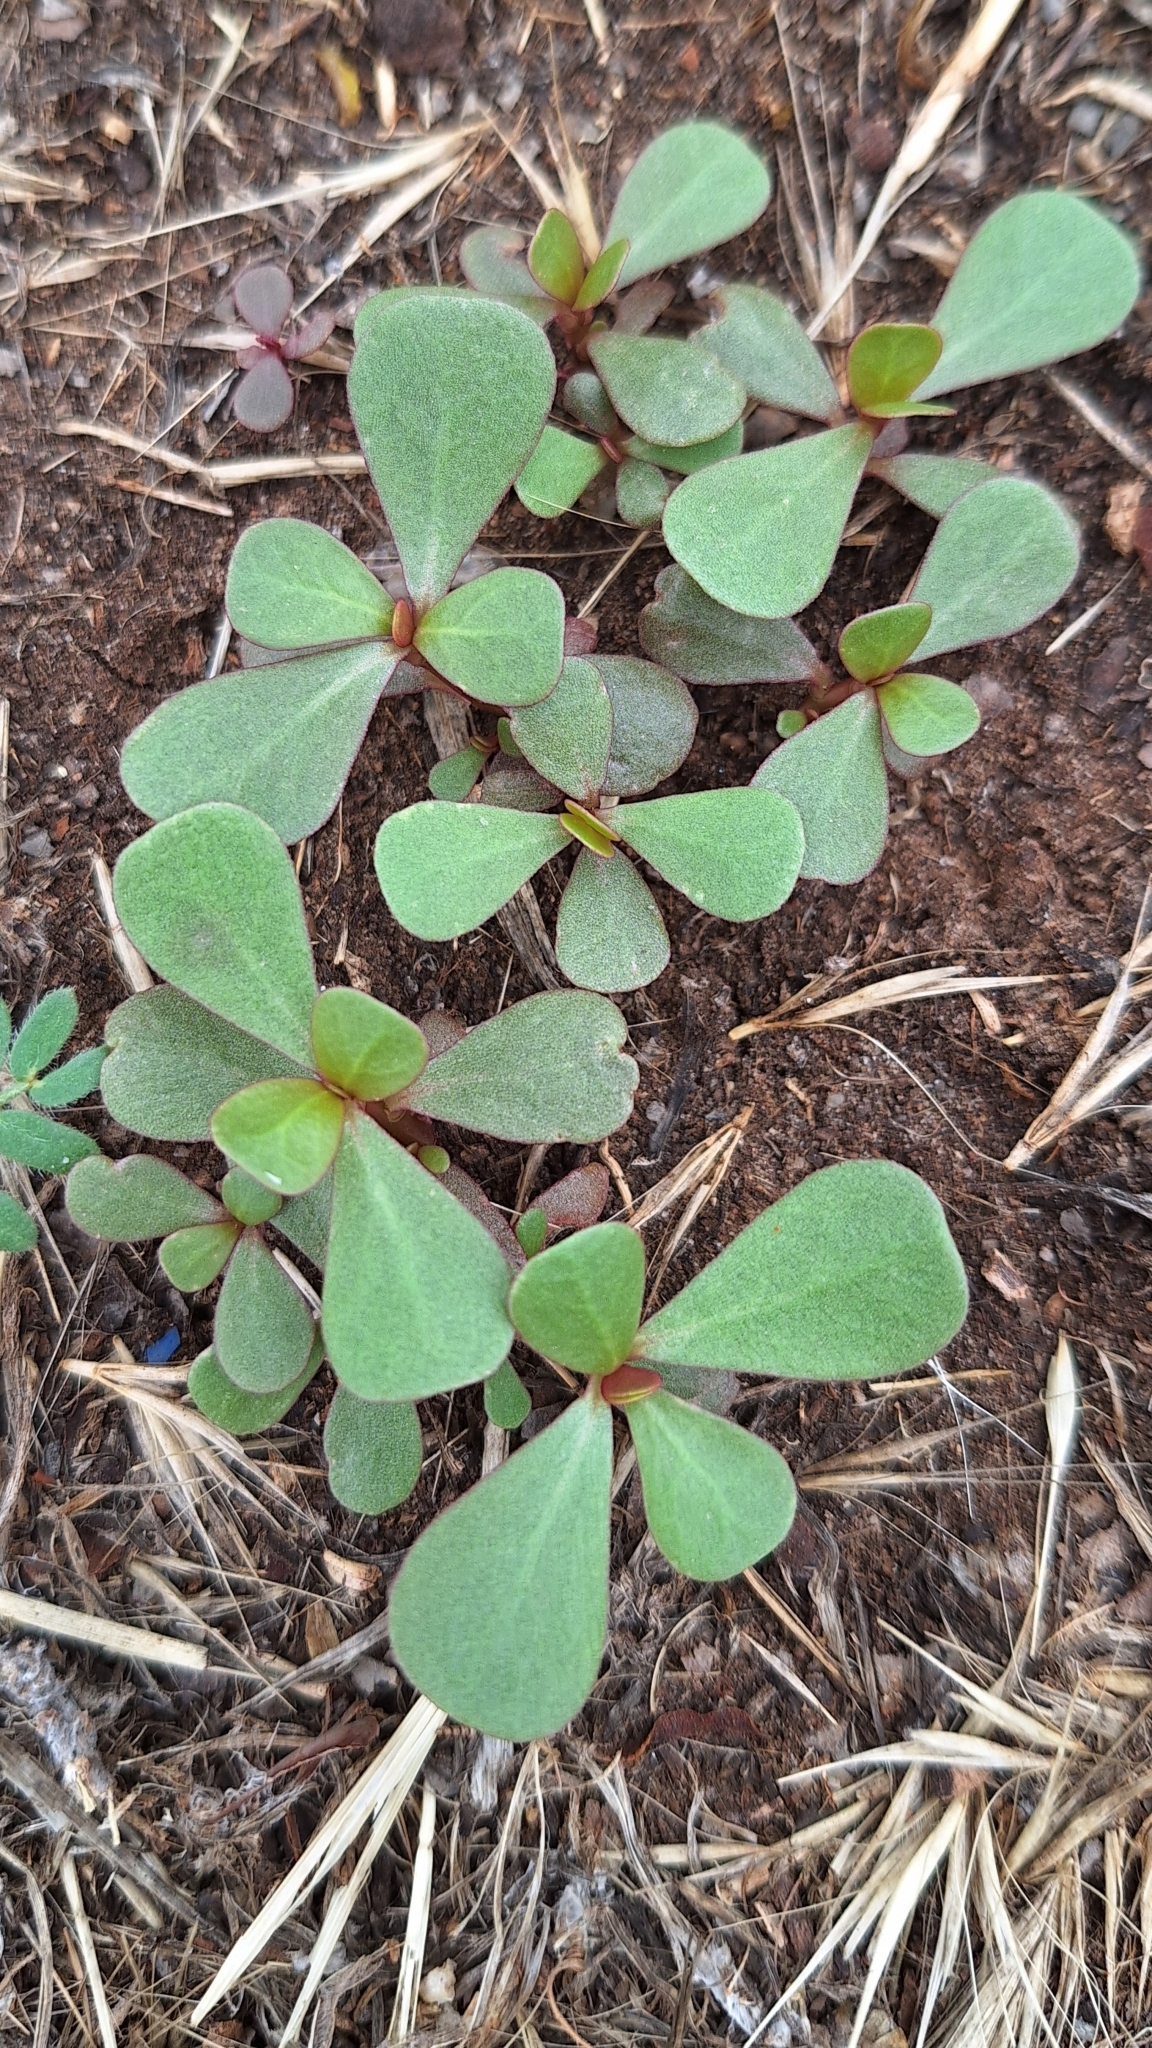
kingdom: Plantae
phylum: Tracheophyta
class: Magnoliopsida
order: Caryophyllales
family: Portulacaceae
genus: Portulaca
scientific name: Portulaca oleracea
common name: Common purslane
